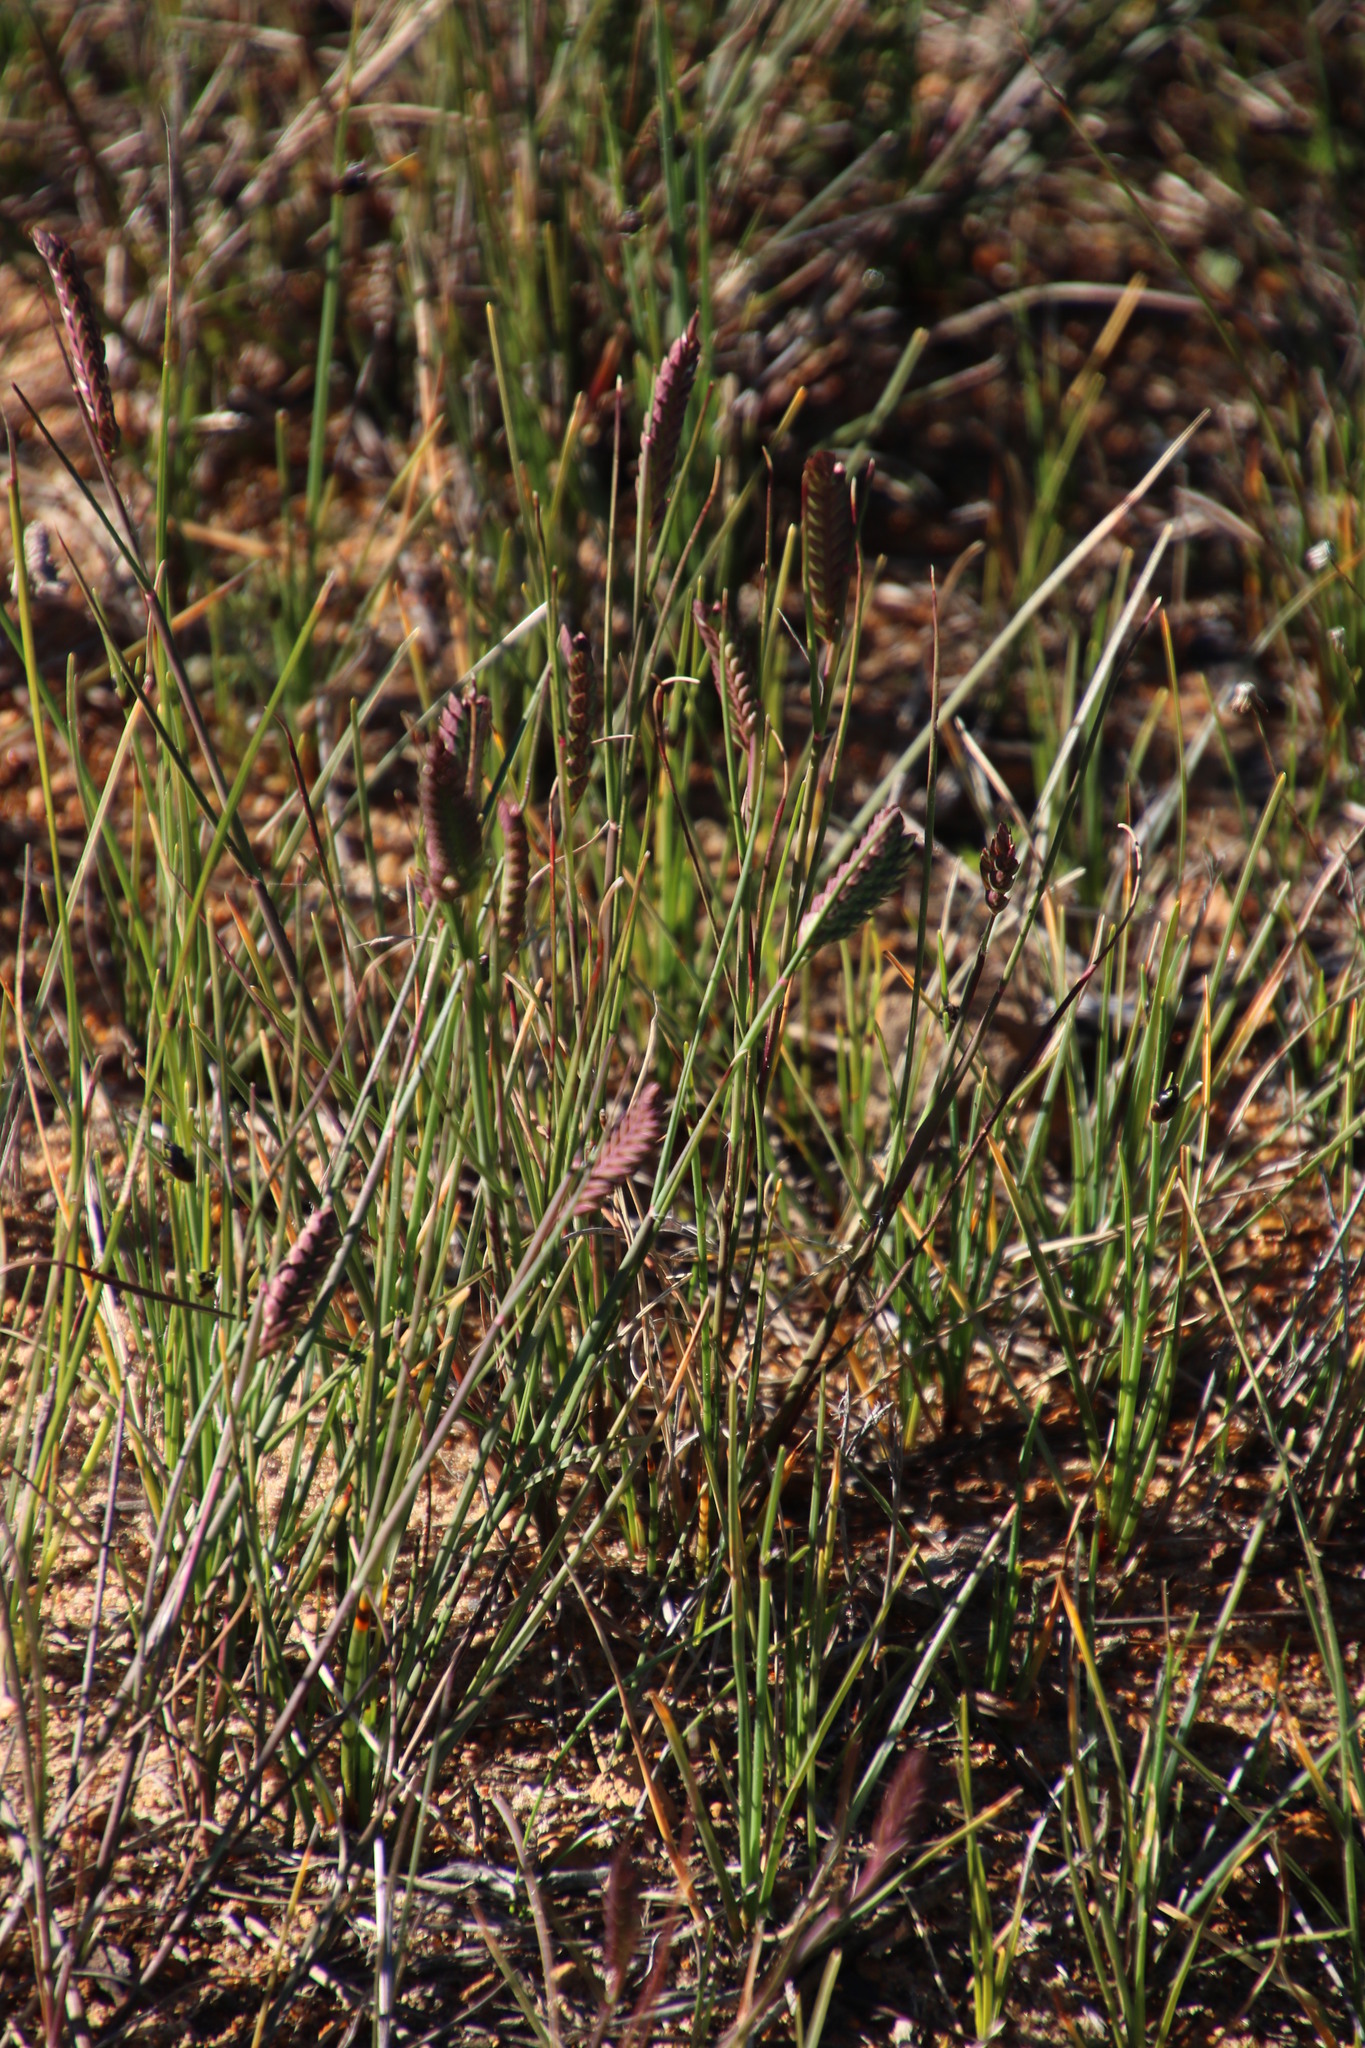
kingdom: Plantae
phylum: Tracheophyta
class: Liliopsida
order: Poales
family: Poaceae
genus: Tribolium
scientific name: Tribolium uniolae
